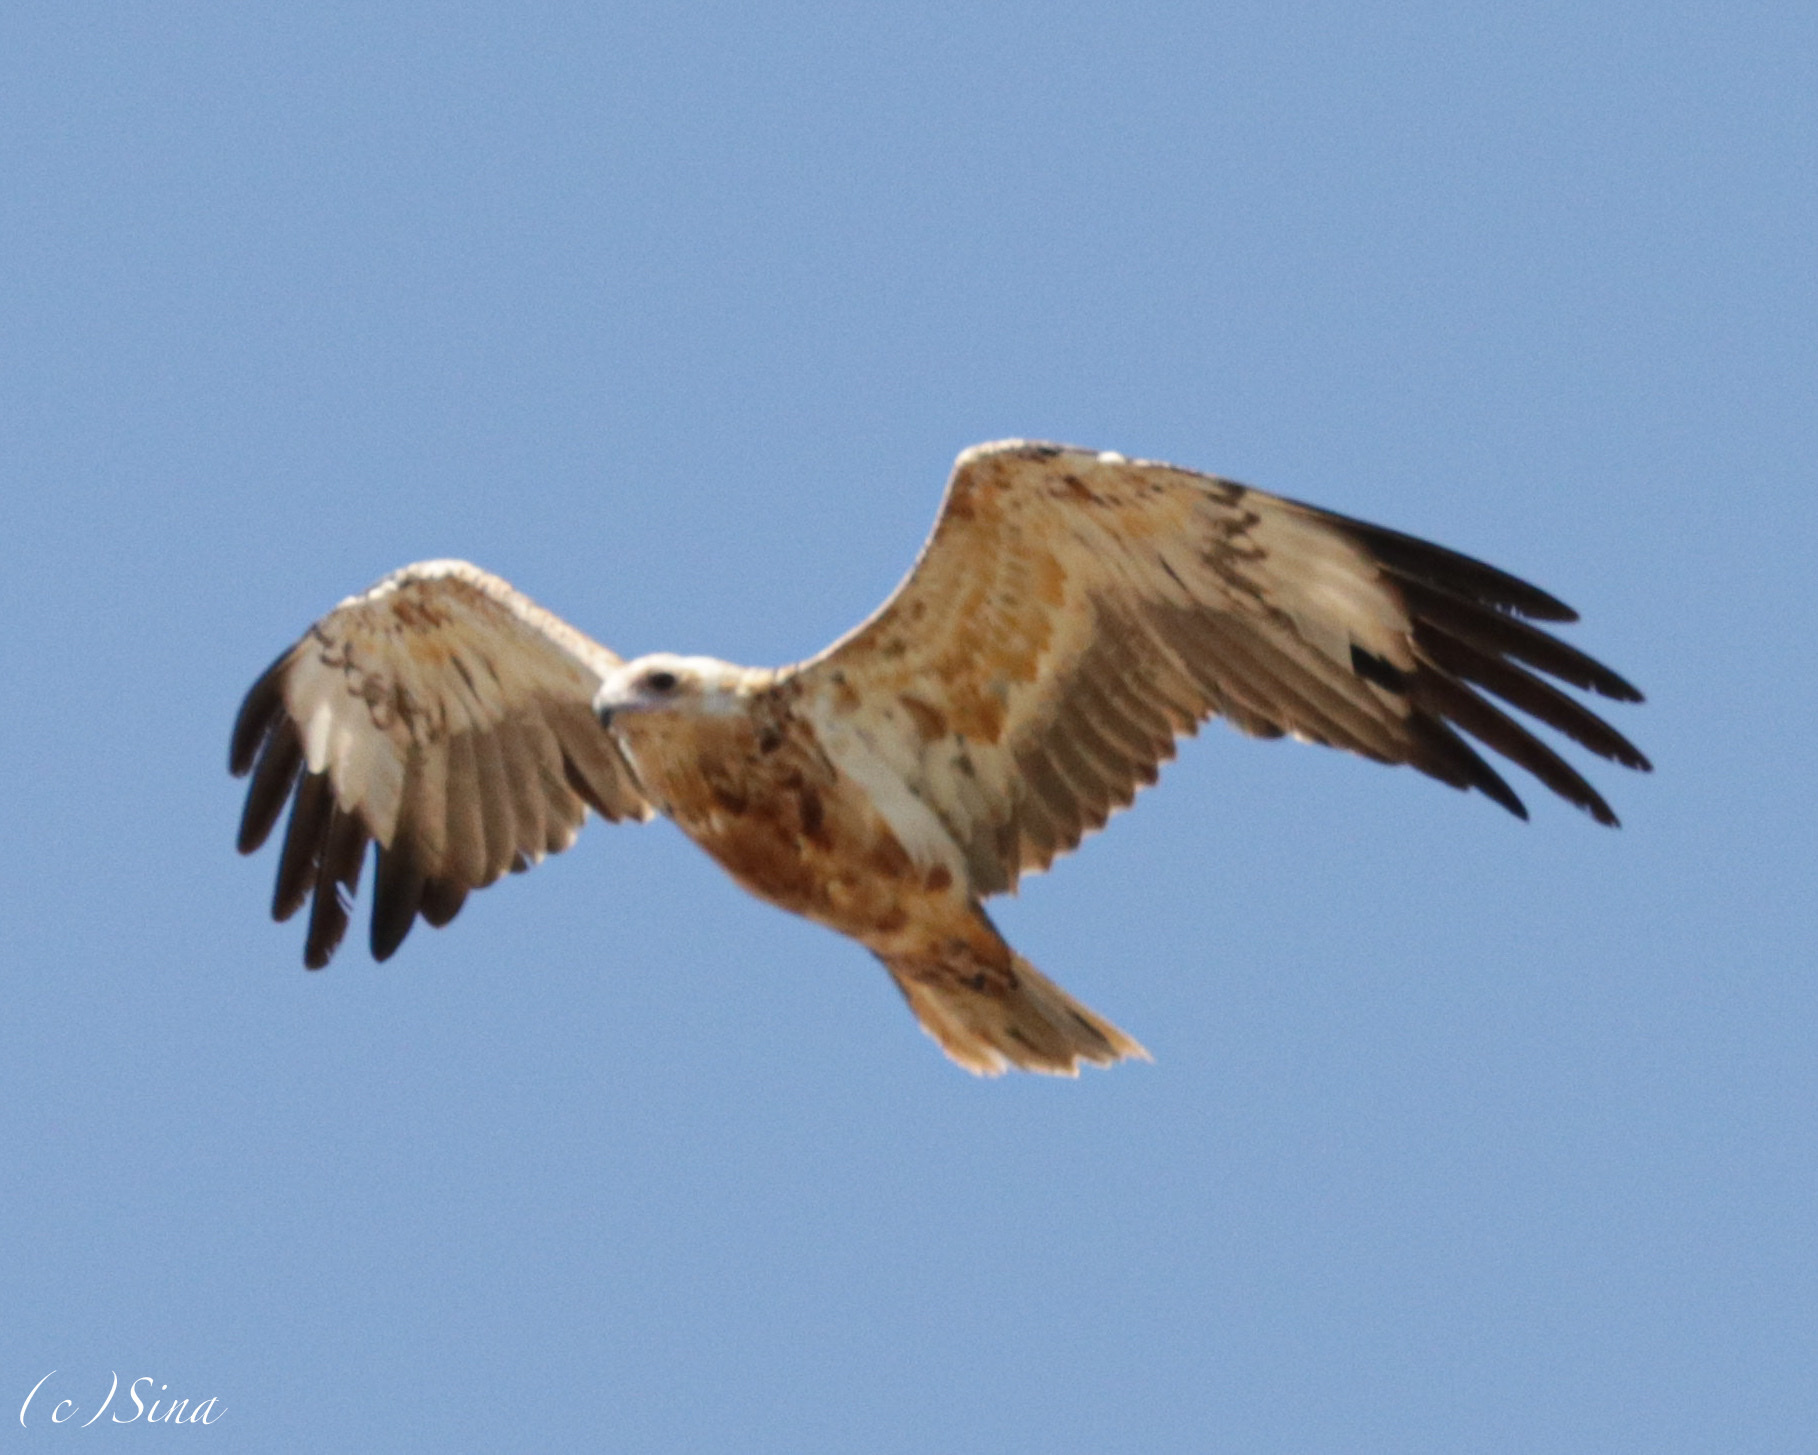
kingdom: Animalia
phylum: Chordata
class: Aves
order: Accipitriformes
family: Accipitridae
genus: Hamirostra
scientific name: Hamirostra melanosternon
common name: Black-breasted buzzard
